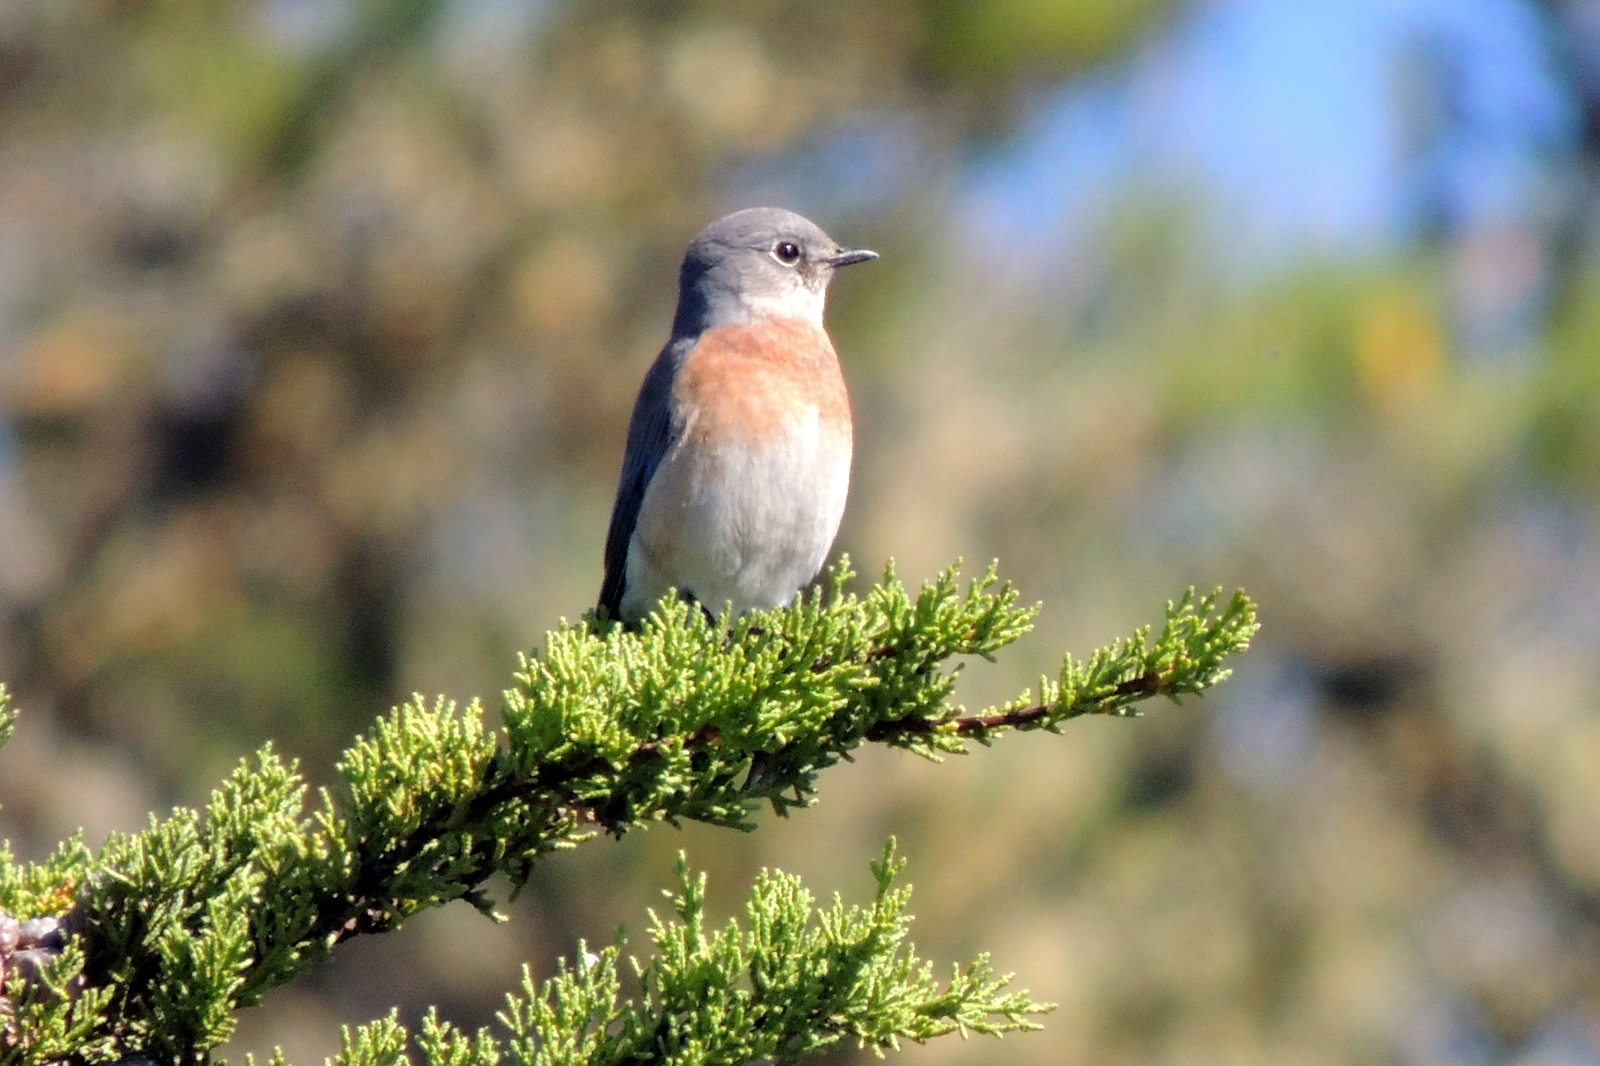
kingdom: Animalia
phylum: Chordata
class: Aves
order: Passeriformes
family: Turdidae
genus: Sialia
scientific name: Sialia mexicana
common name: Western bluebird
